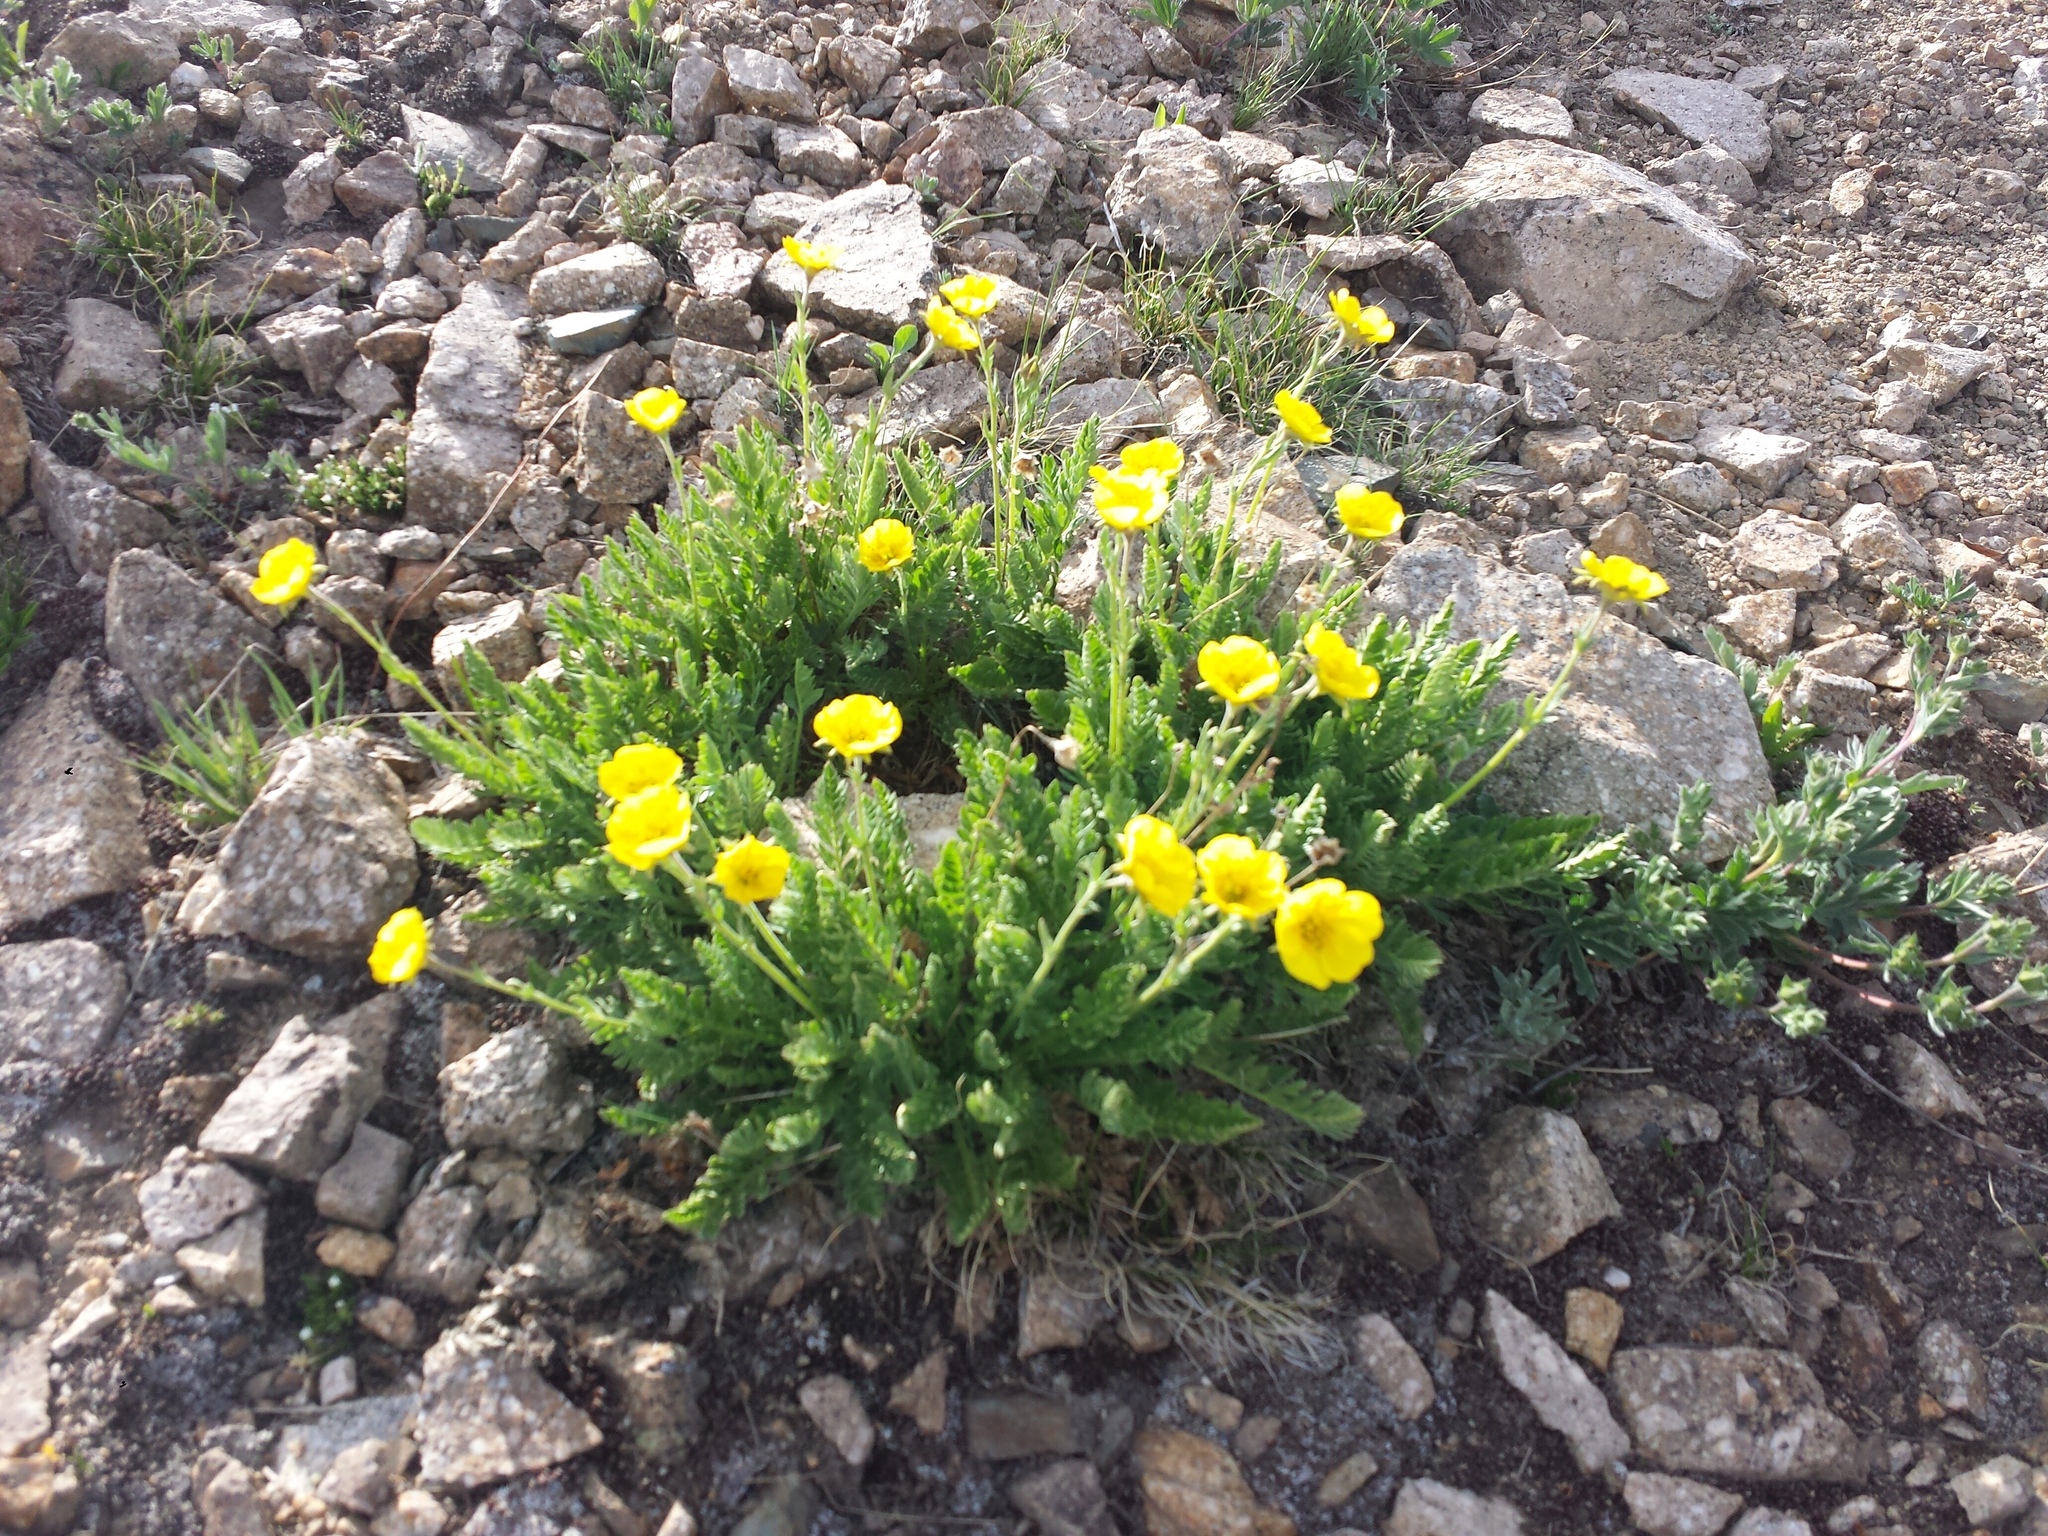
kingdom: Plantae
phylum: Tracheophyta
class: Magnoliopsida
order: Rosales
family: Rosaceae
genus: Geum
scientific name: Geum rossii
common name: Alpine avens
